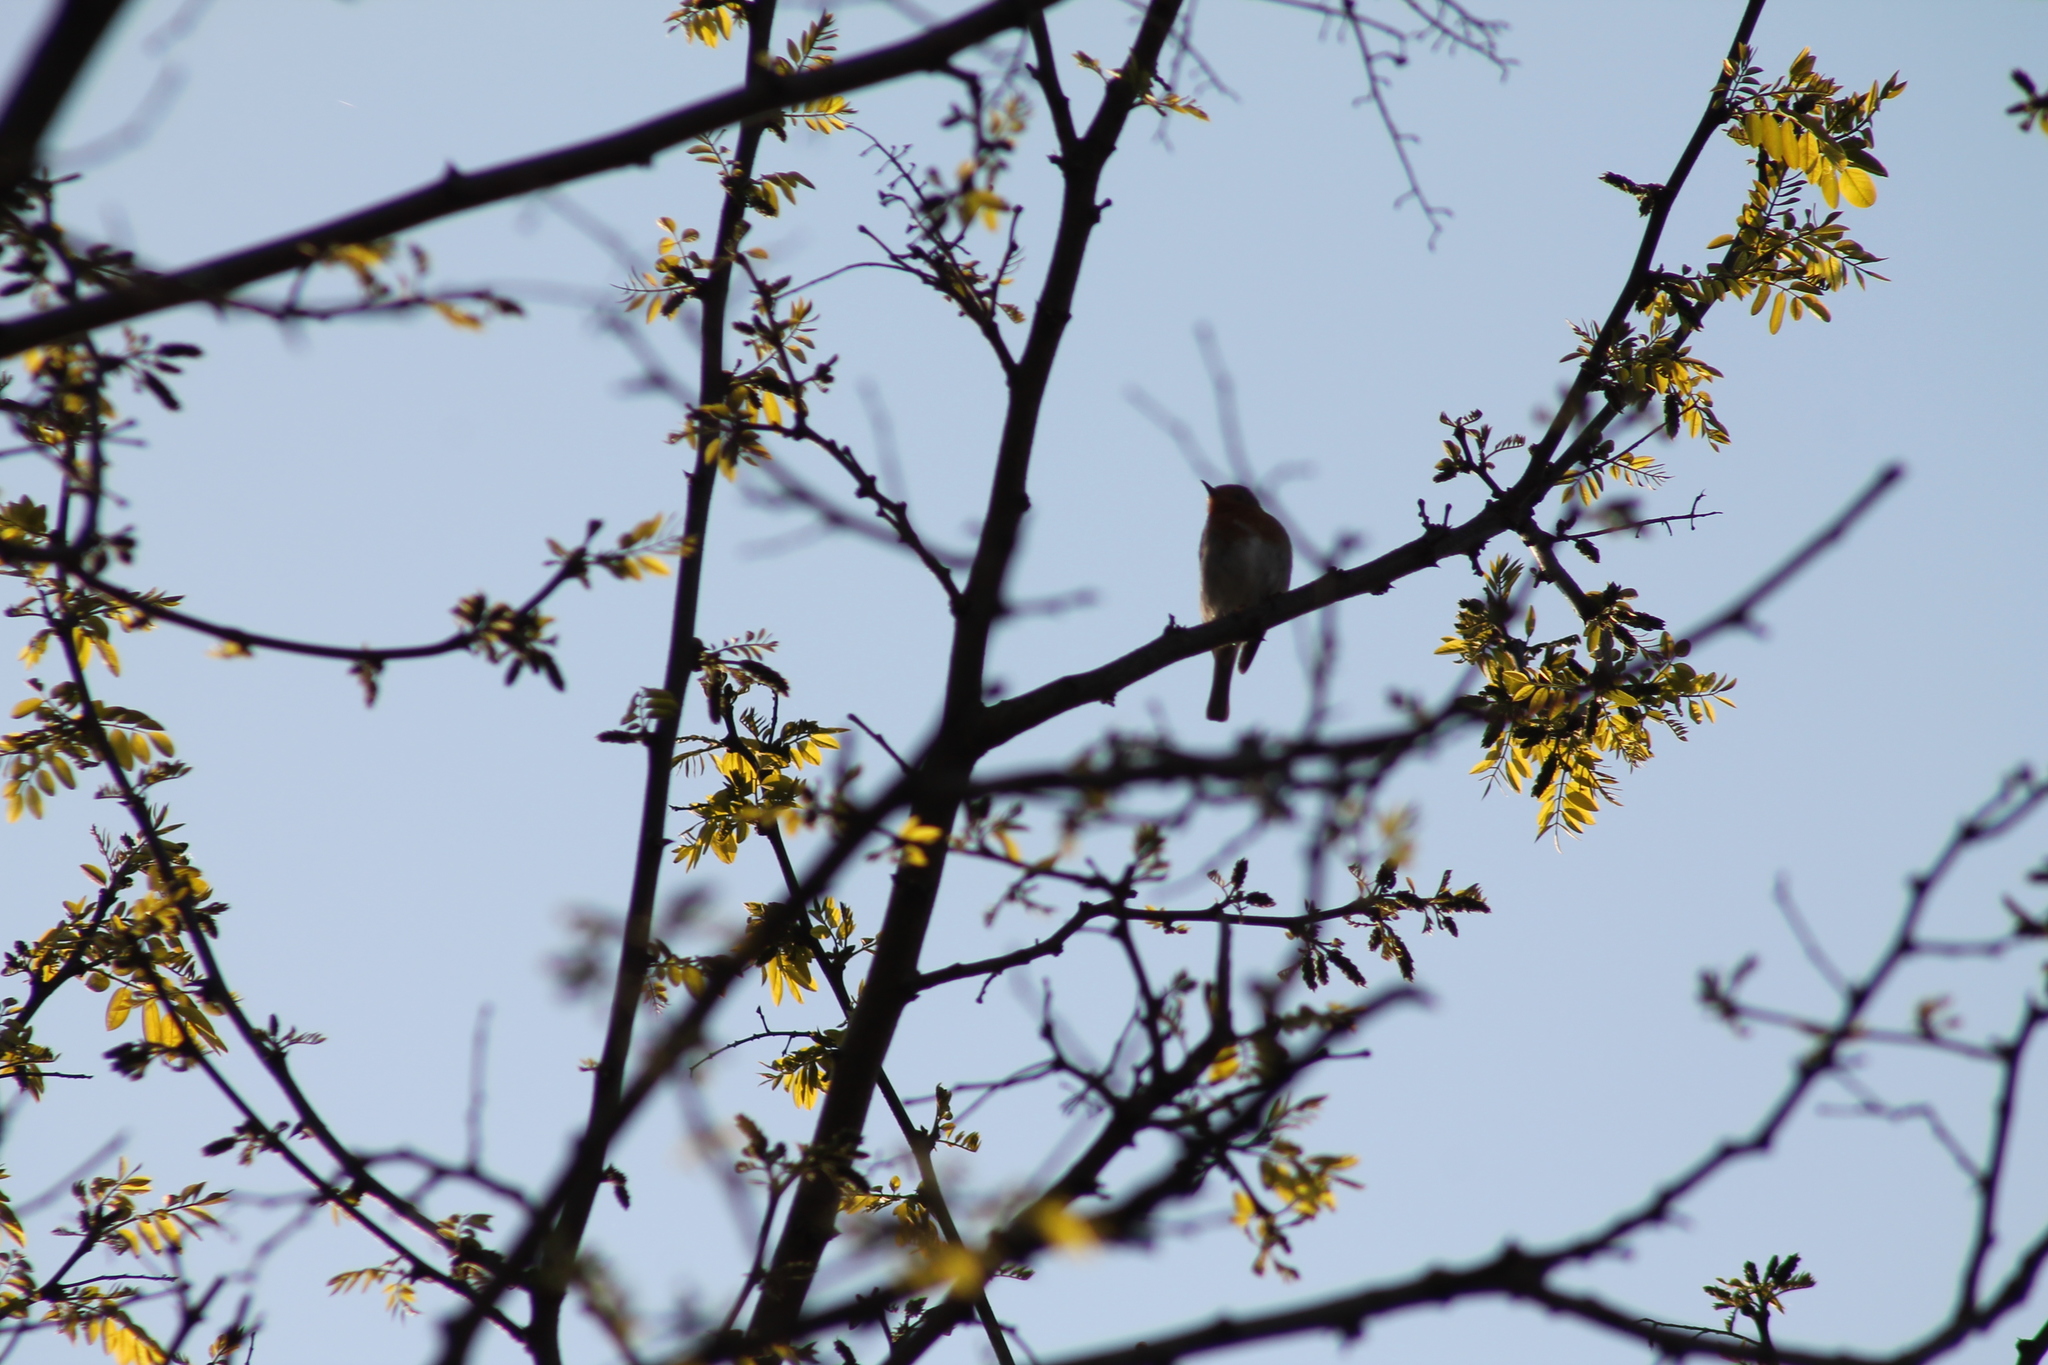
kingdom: Animalia
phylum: Chordata
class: Aves
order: Passeriformes
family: Muscicapidae
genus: Erithacus
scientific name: Erithacus rubecula
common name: European robin
